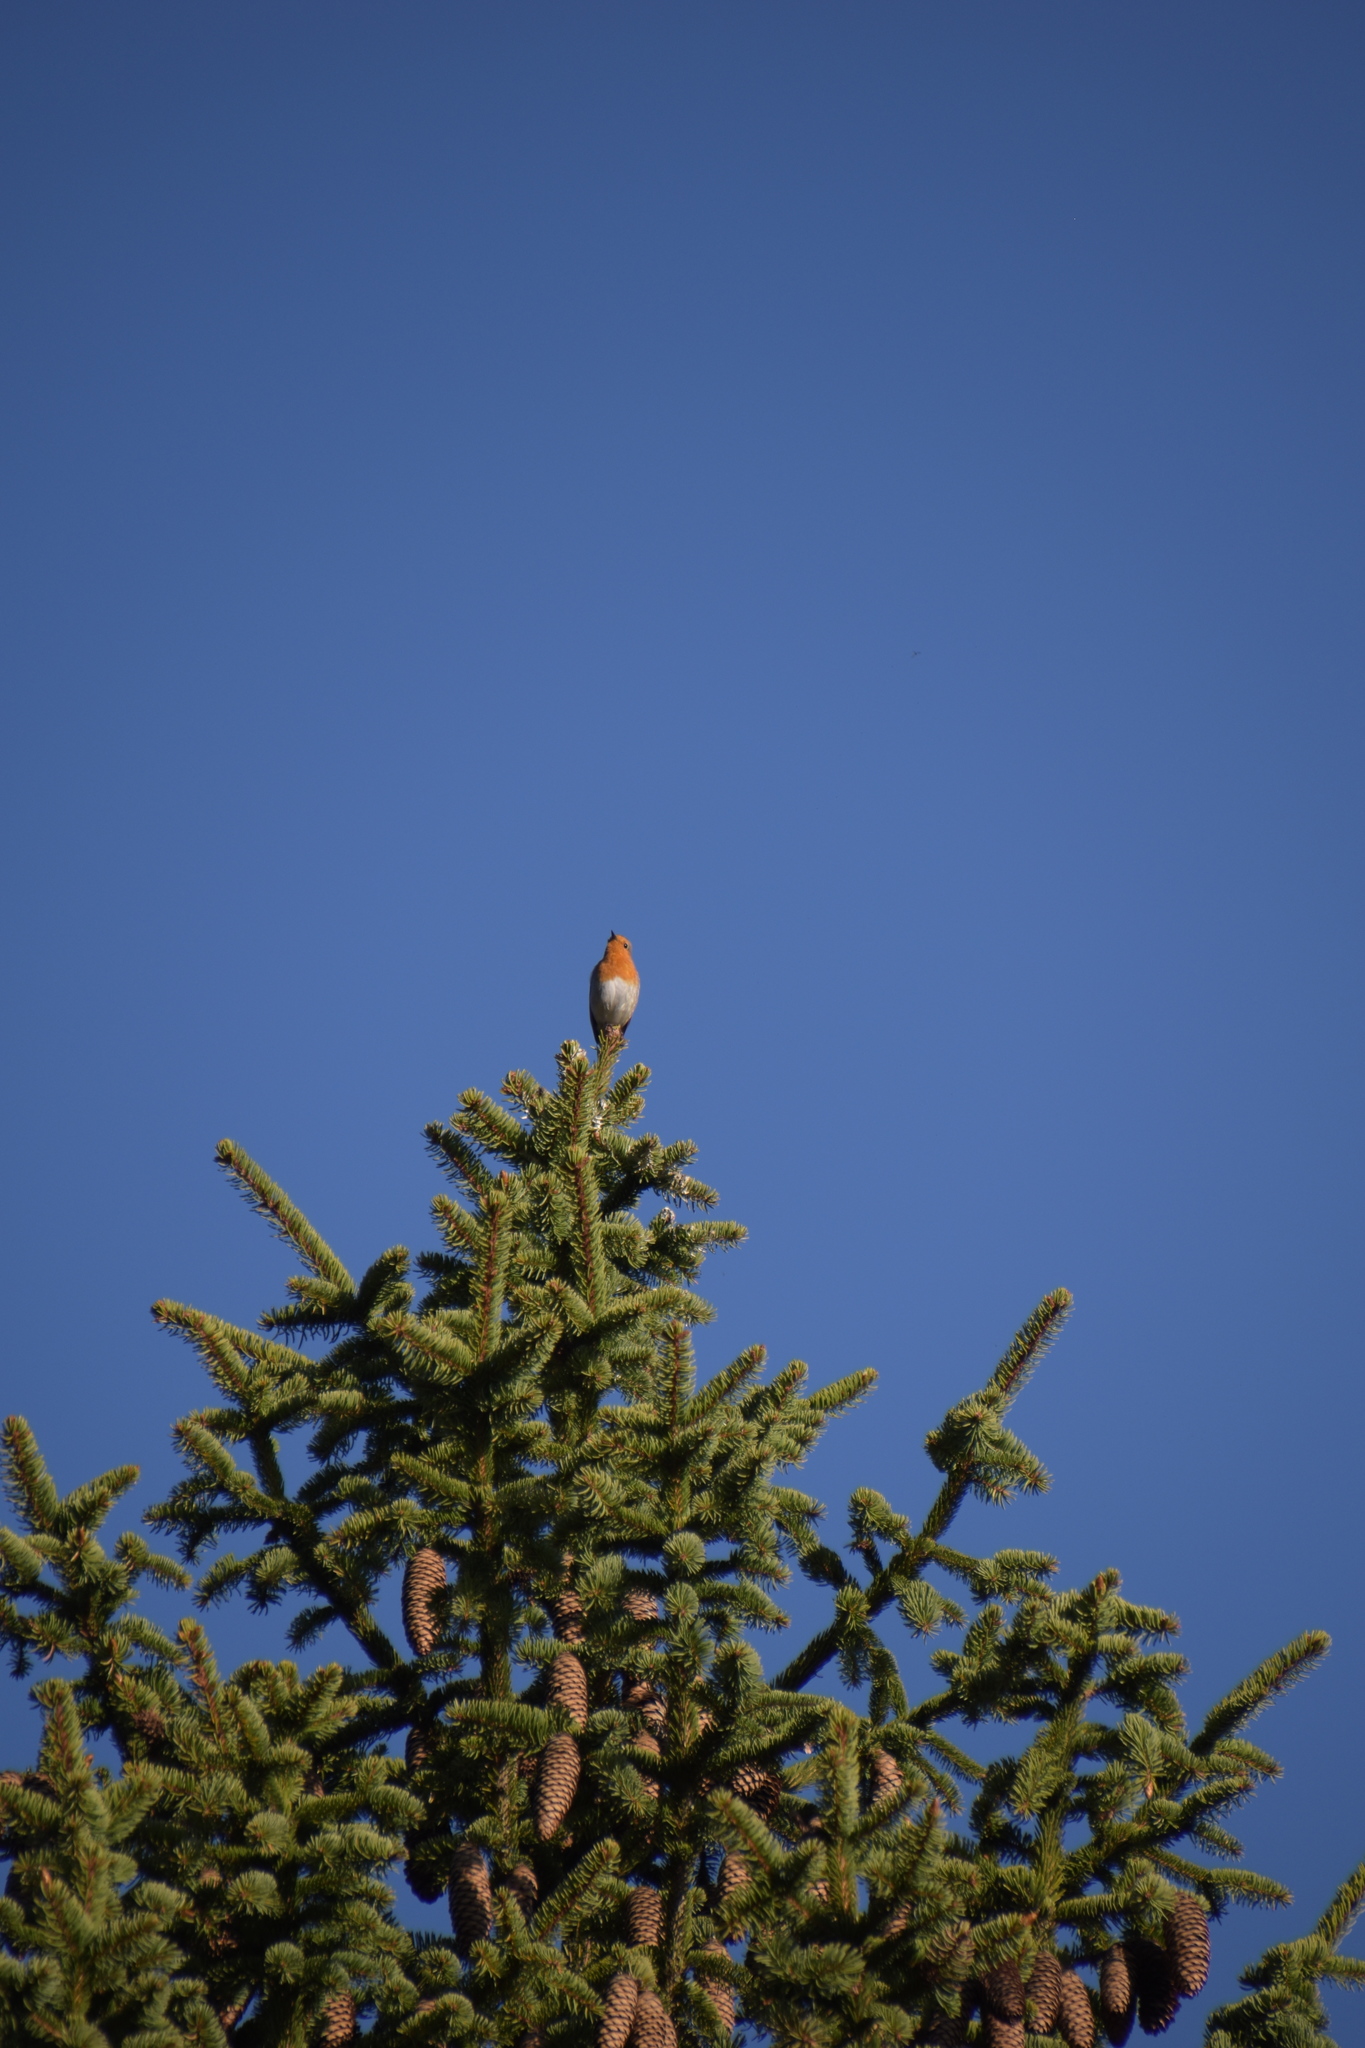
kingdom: Animalia
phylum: Chordata
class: Aves
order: Passeriformes
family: Muscicapidae
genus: Erithacus
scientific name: Erithacus rubecula
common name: European robin
